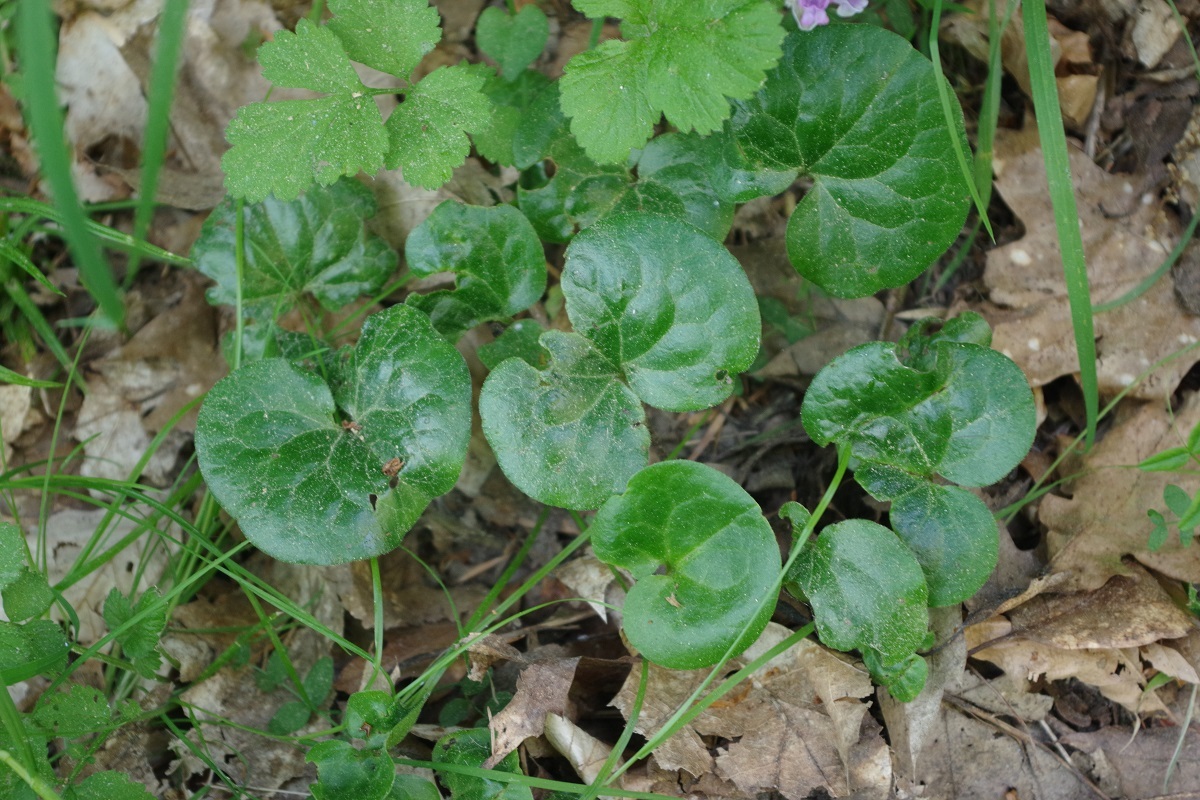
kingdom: Plantae
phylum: Tracheophyta
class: Magnoliopsida
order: Piperales
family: Aristolochiaceae
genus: Asarum
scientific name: Asarum europaeum
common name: Asarabacca
